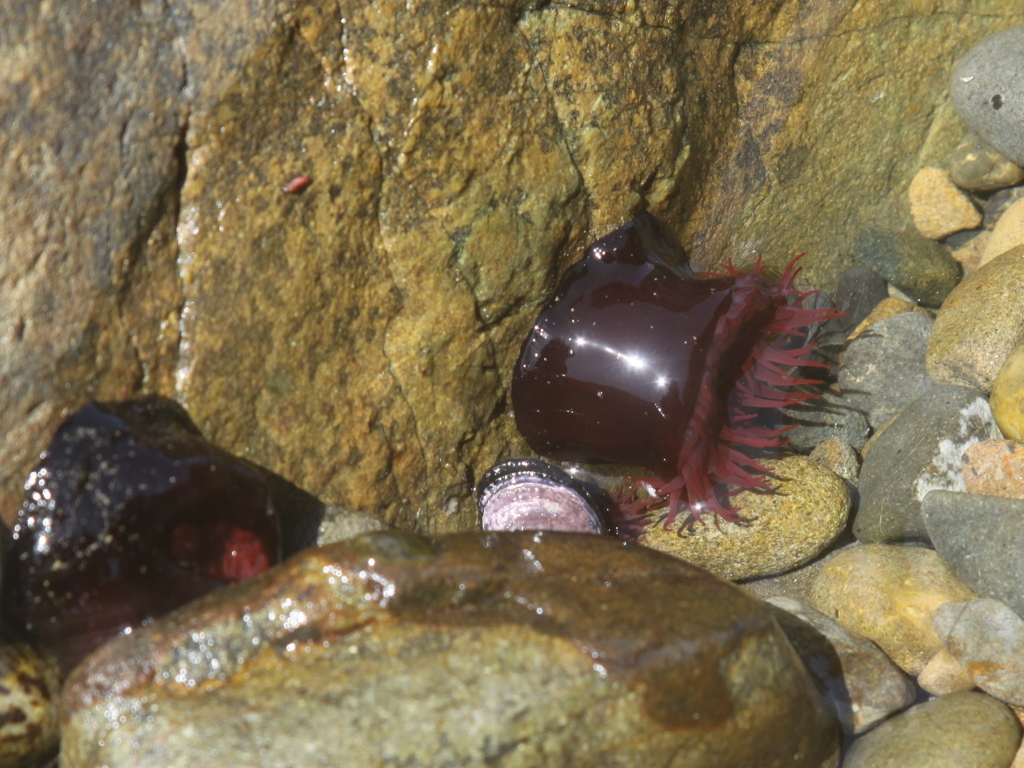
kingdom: Animalia
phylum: Cnidaria
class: Anthozoa
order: Actiniaria
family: Actiniidae
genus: Actinia
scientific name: Actinia tenebrosa
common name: Waratah anemone
